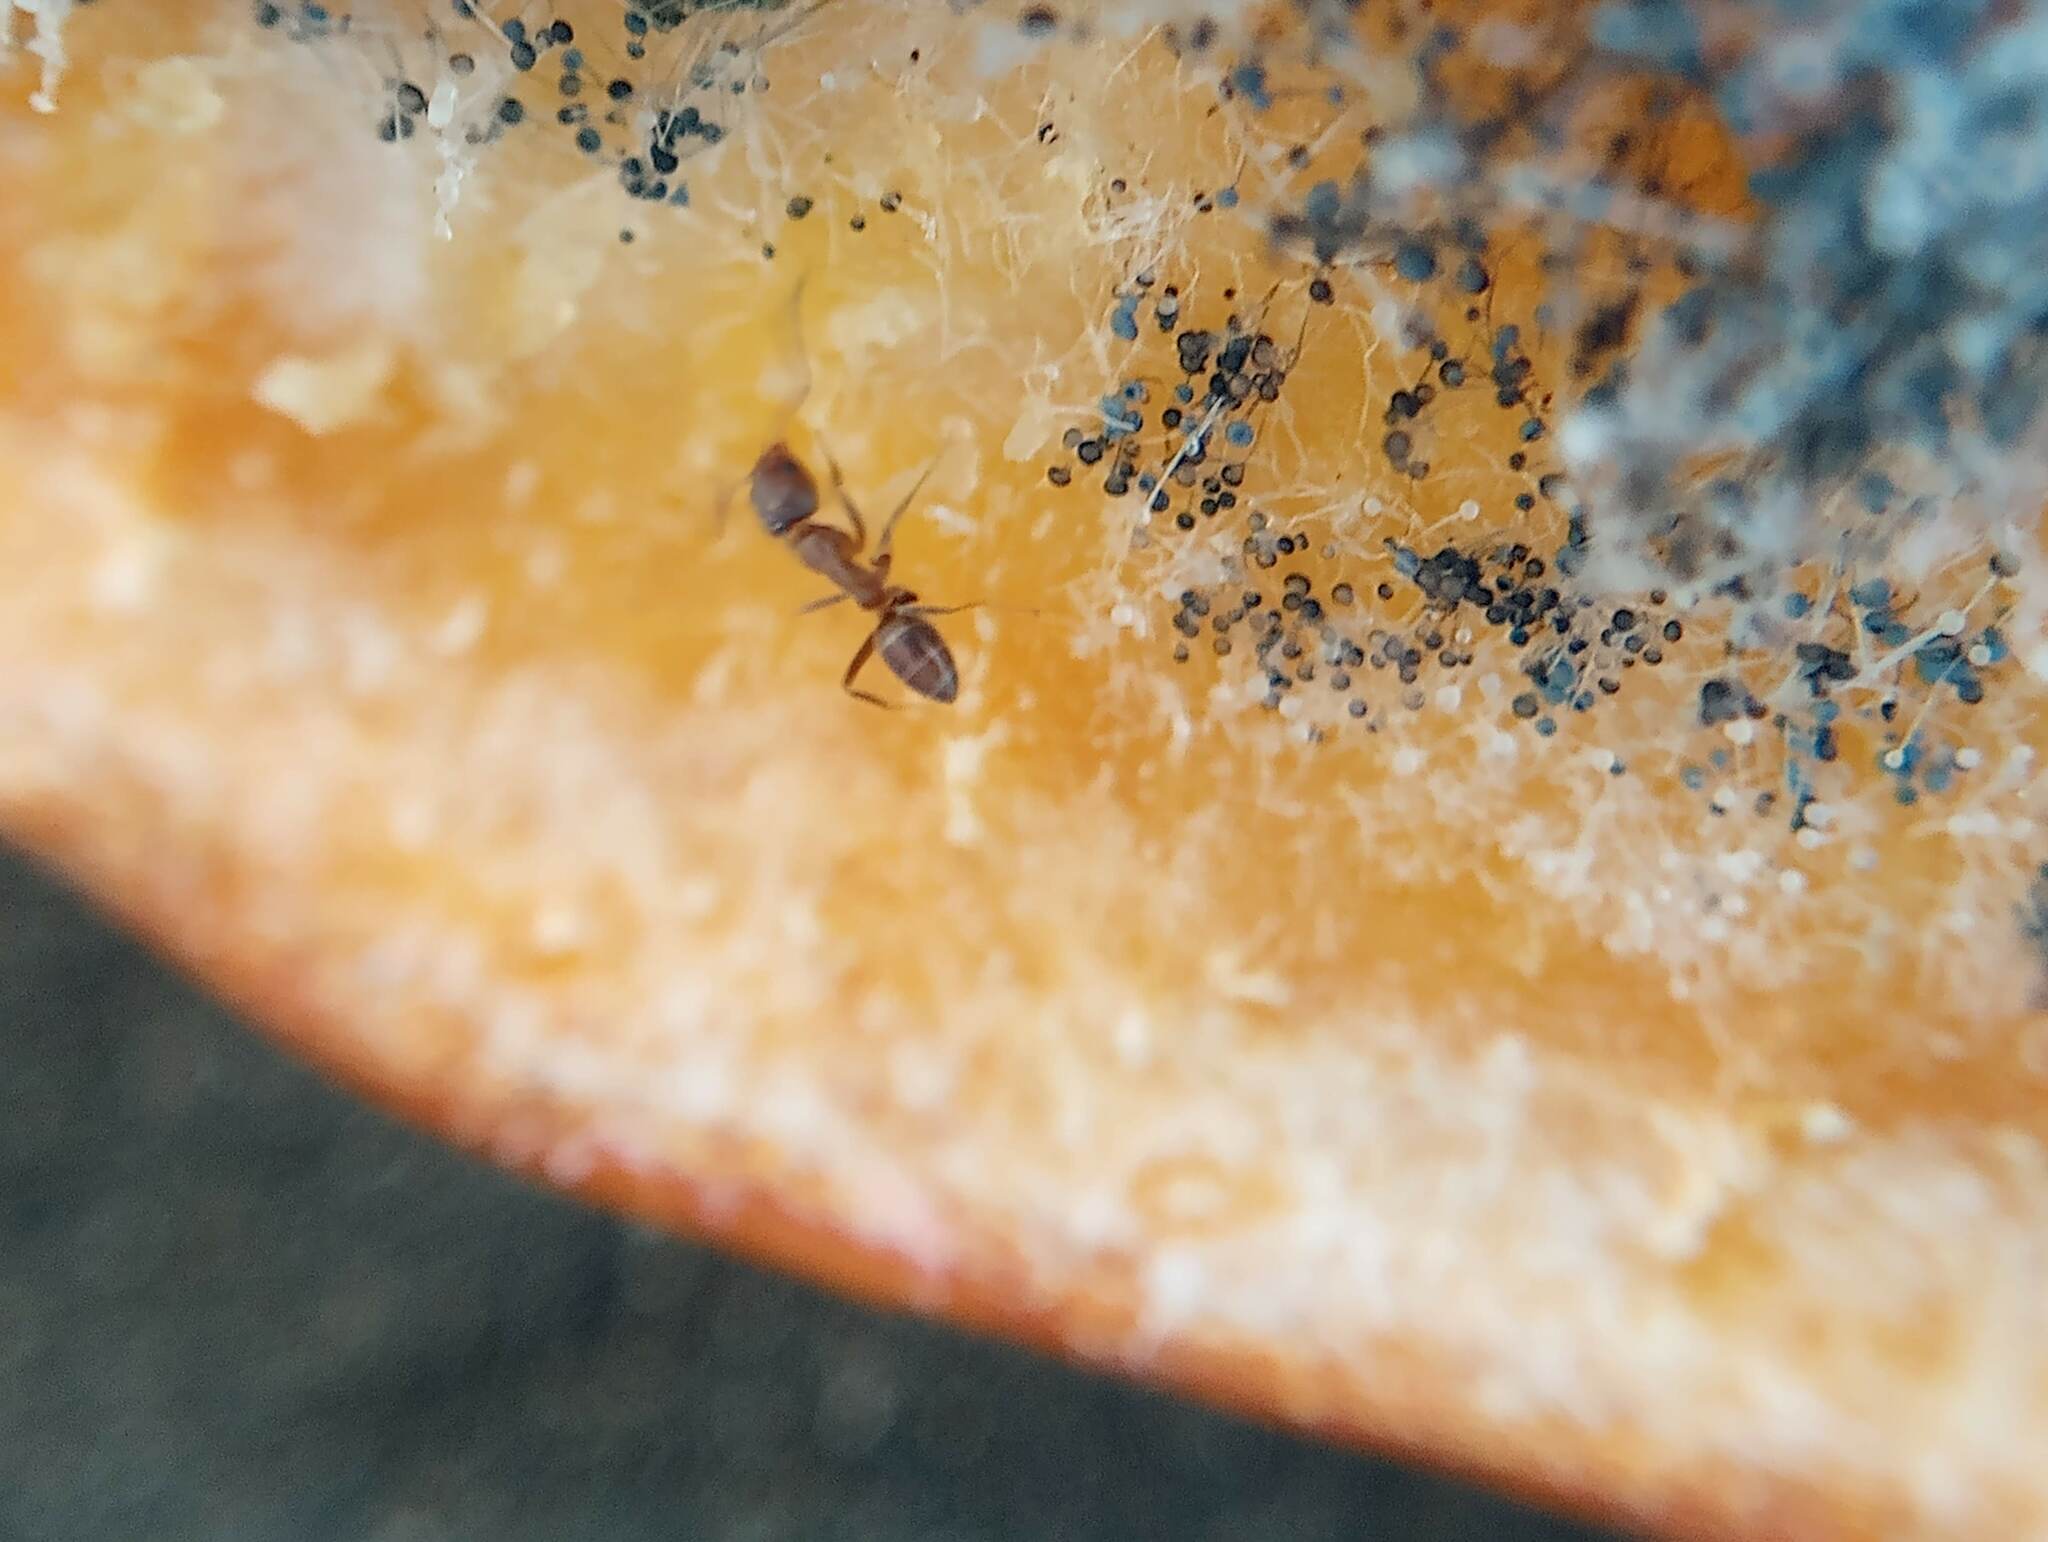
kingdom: Animalia
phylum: Arthropoda
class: Insecta
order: Hymenoptera
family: Formicidae
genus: Linepithema
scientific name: Linepithema humile
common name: Argentine ant
